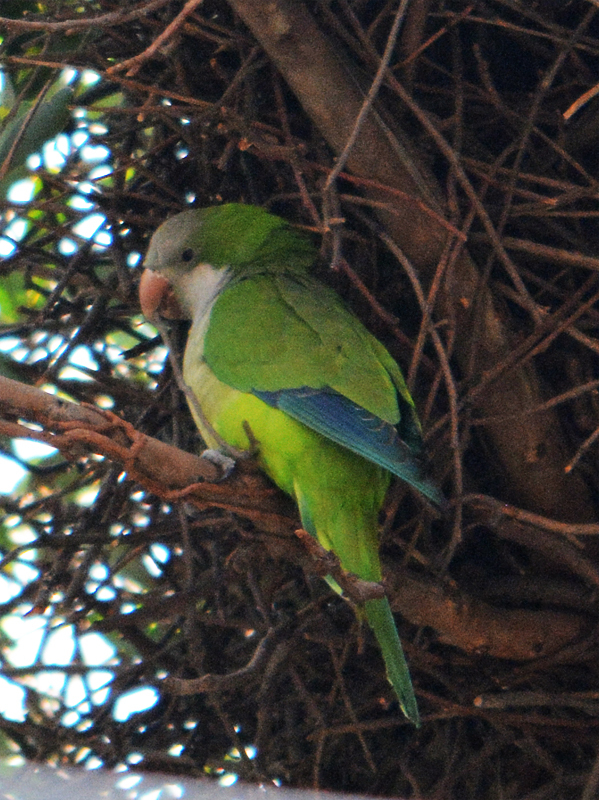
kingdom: Animalia
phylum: Chordata
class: Aves
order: Psittaciformes
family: Psittacidae
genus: Myiopsitta
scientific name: Myiopsitta monachus
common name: Monk parakeet
